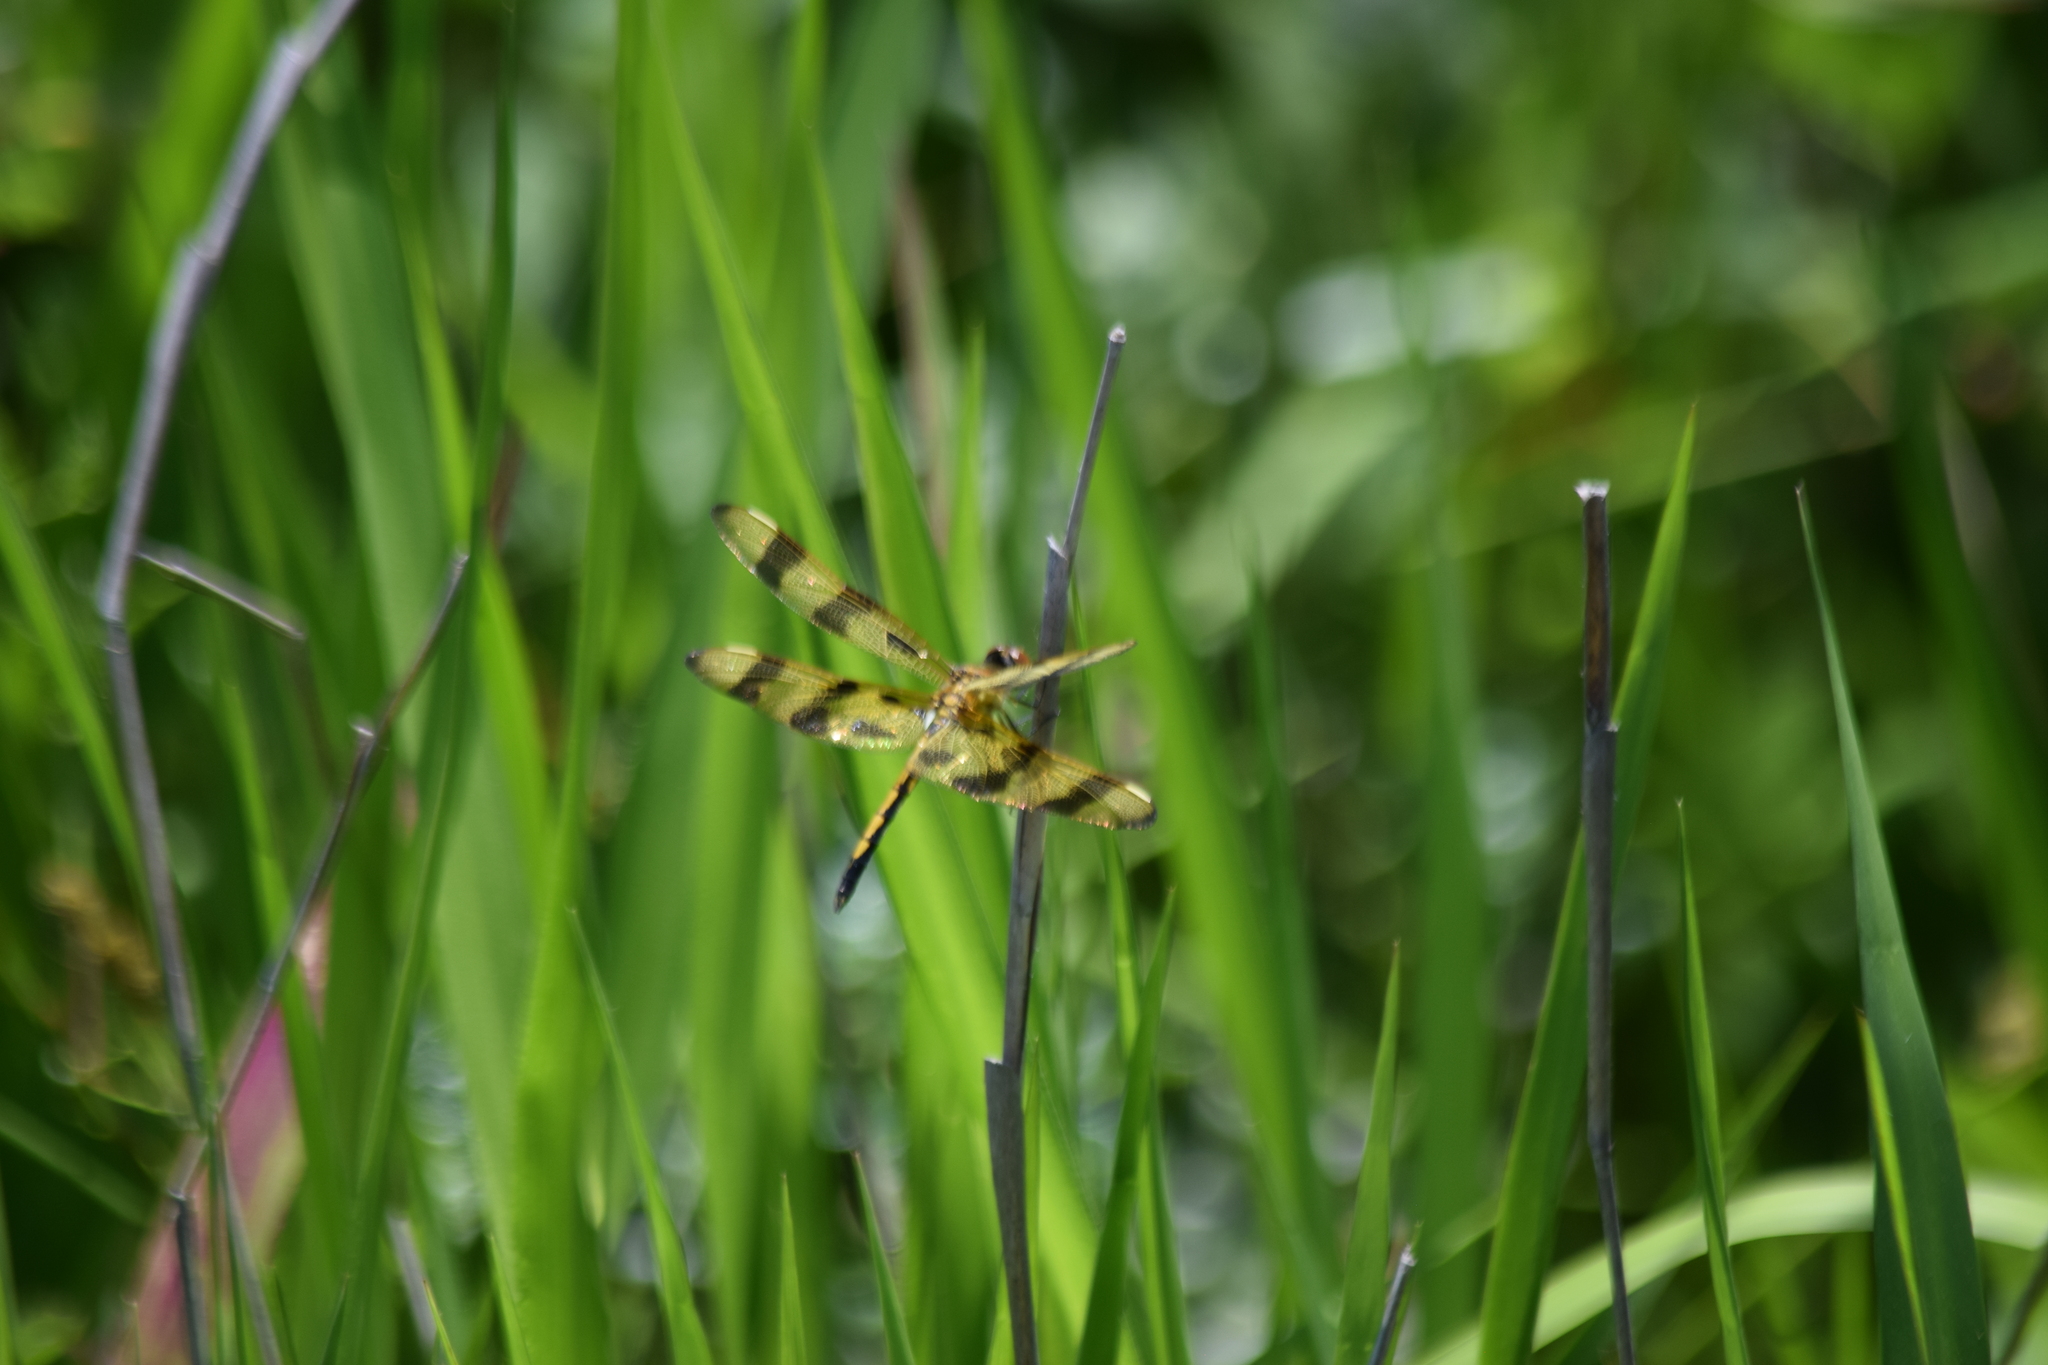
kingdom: Animalia
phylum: Arthropoda
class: Insecta
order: Odonata
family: Libellulidae
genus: Celithemis
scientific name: Celithemis eponina
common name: Halloween pennant
